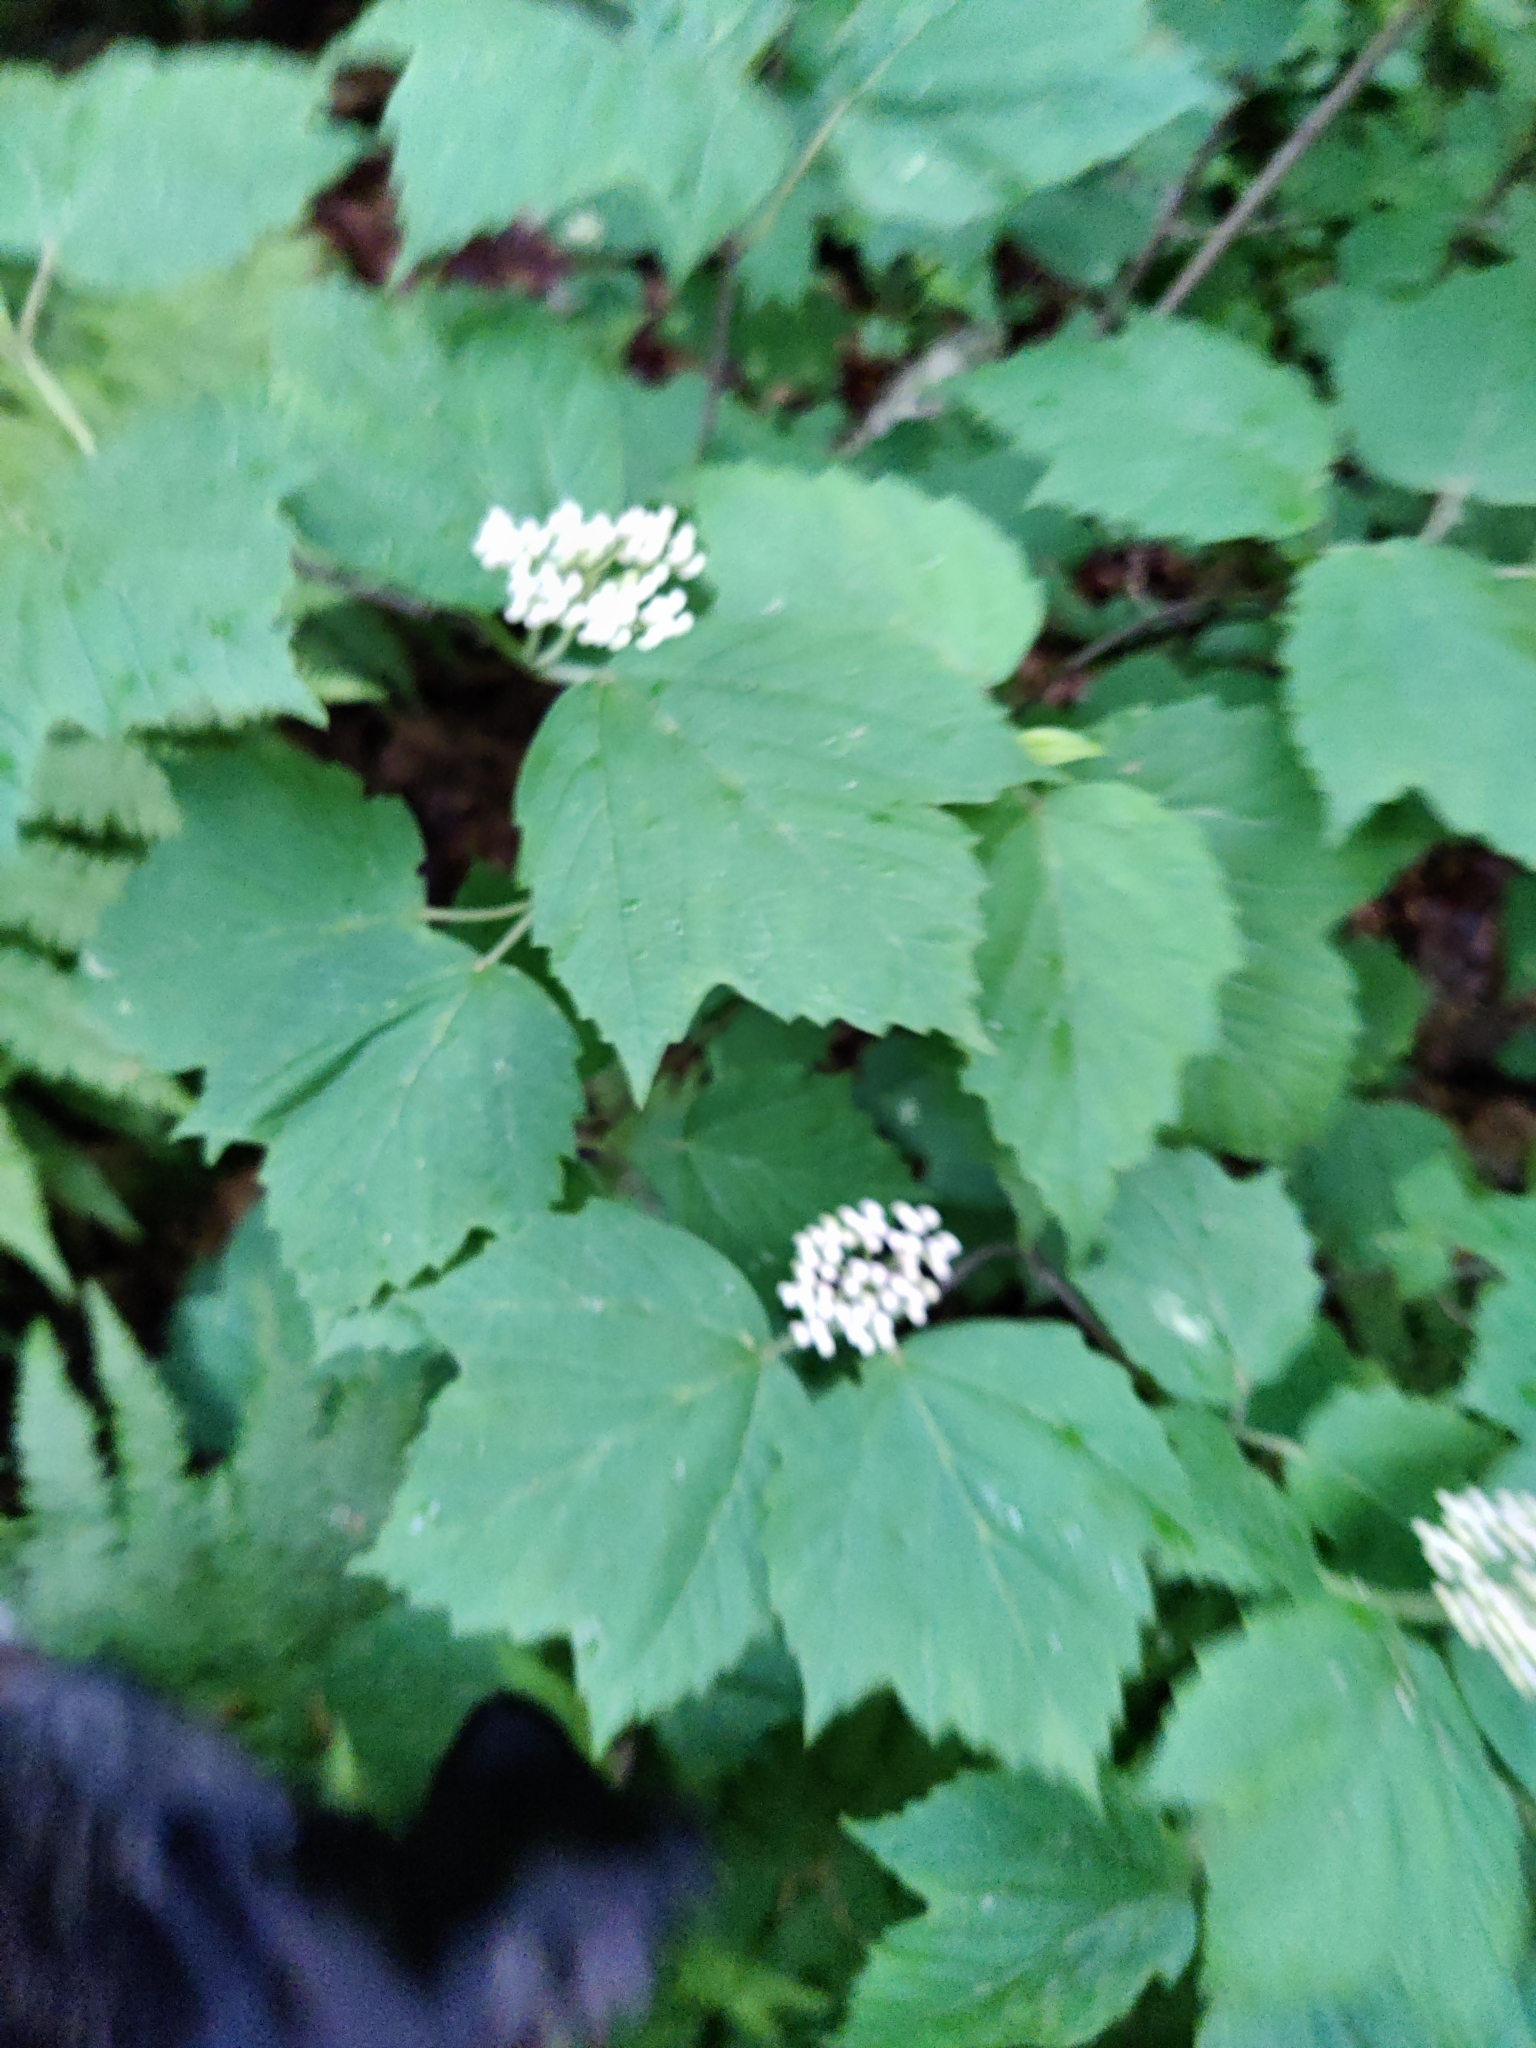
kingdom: Plantae
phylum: Tracheophyta
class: Magnoliopsida
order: Dipsacales
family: Viburnaceae
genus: Viburnum
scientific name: Viburnum acerifolium
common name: Dockmackie
